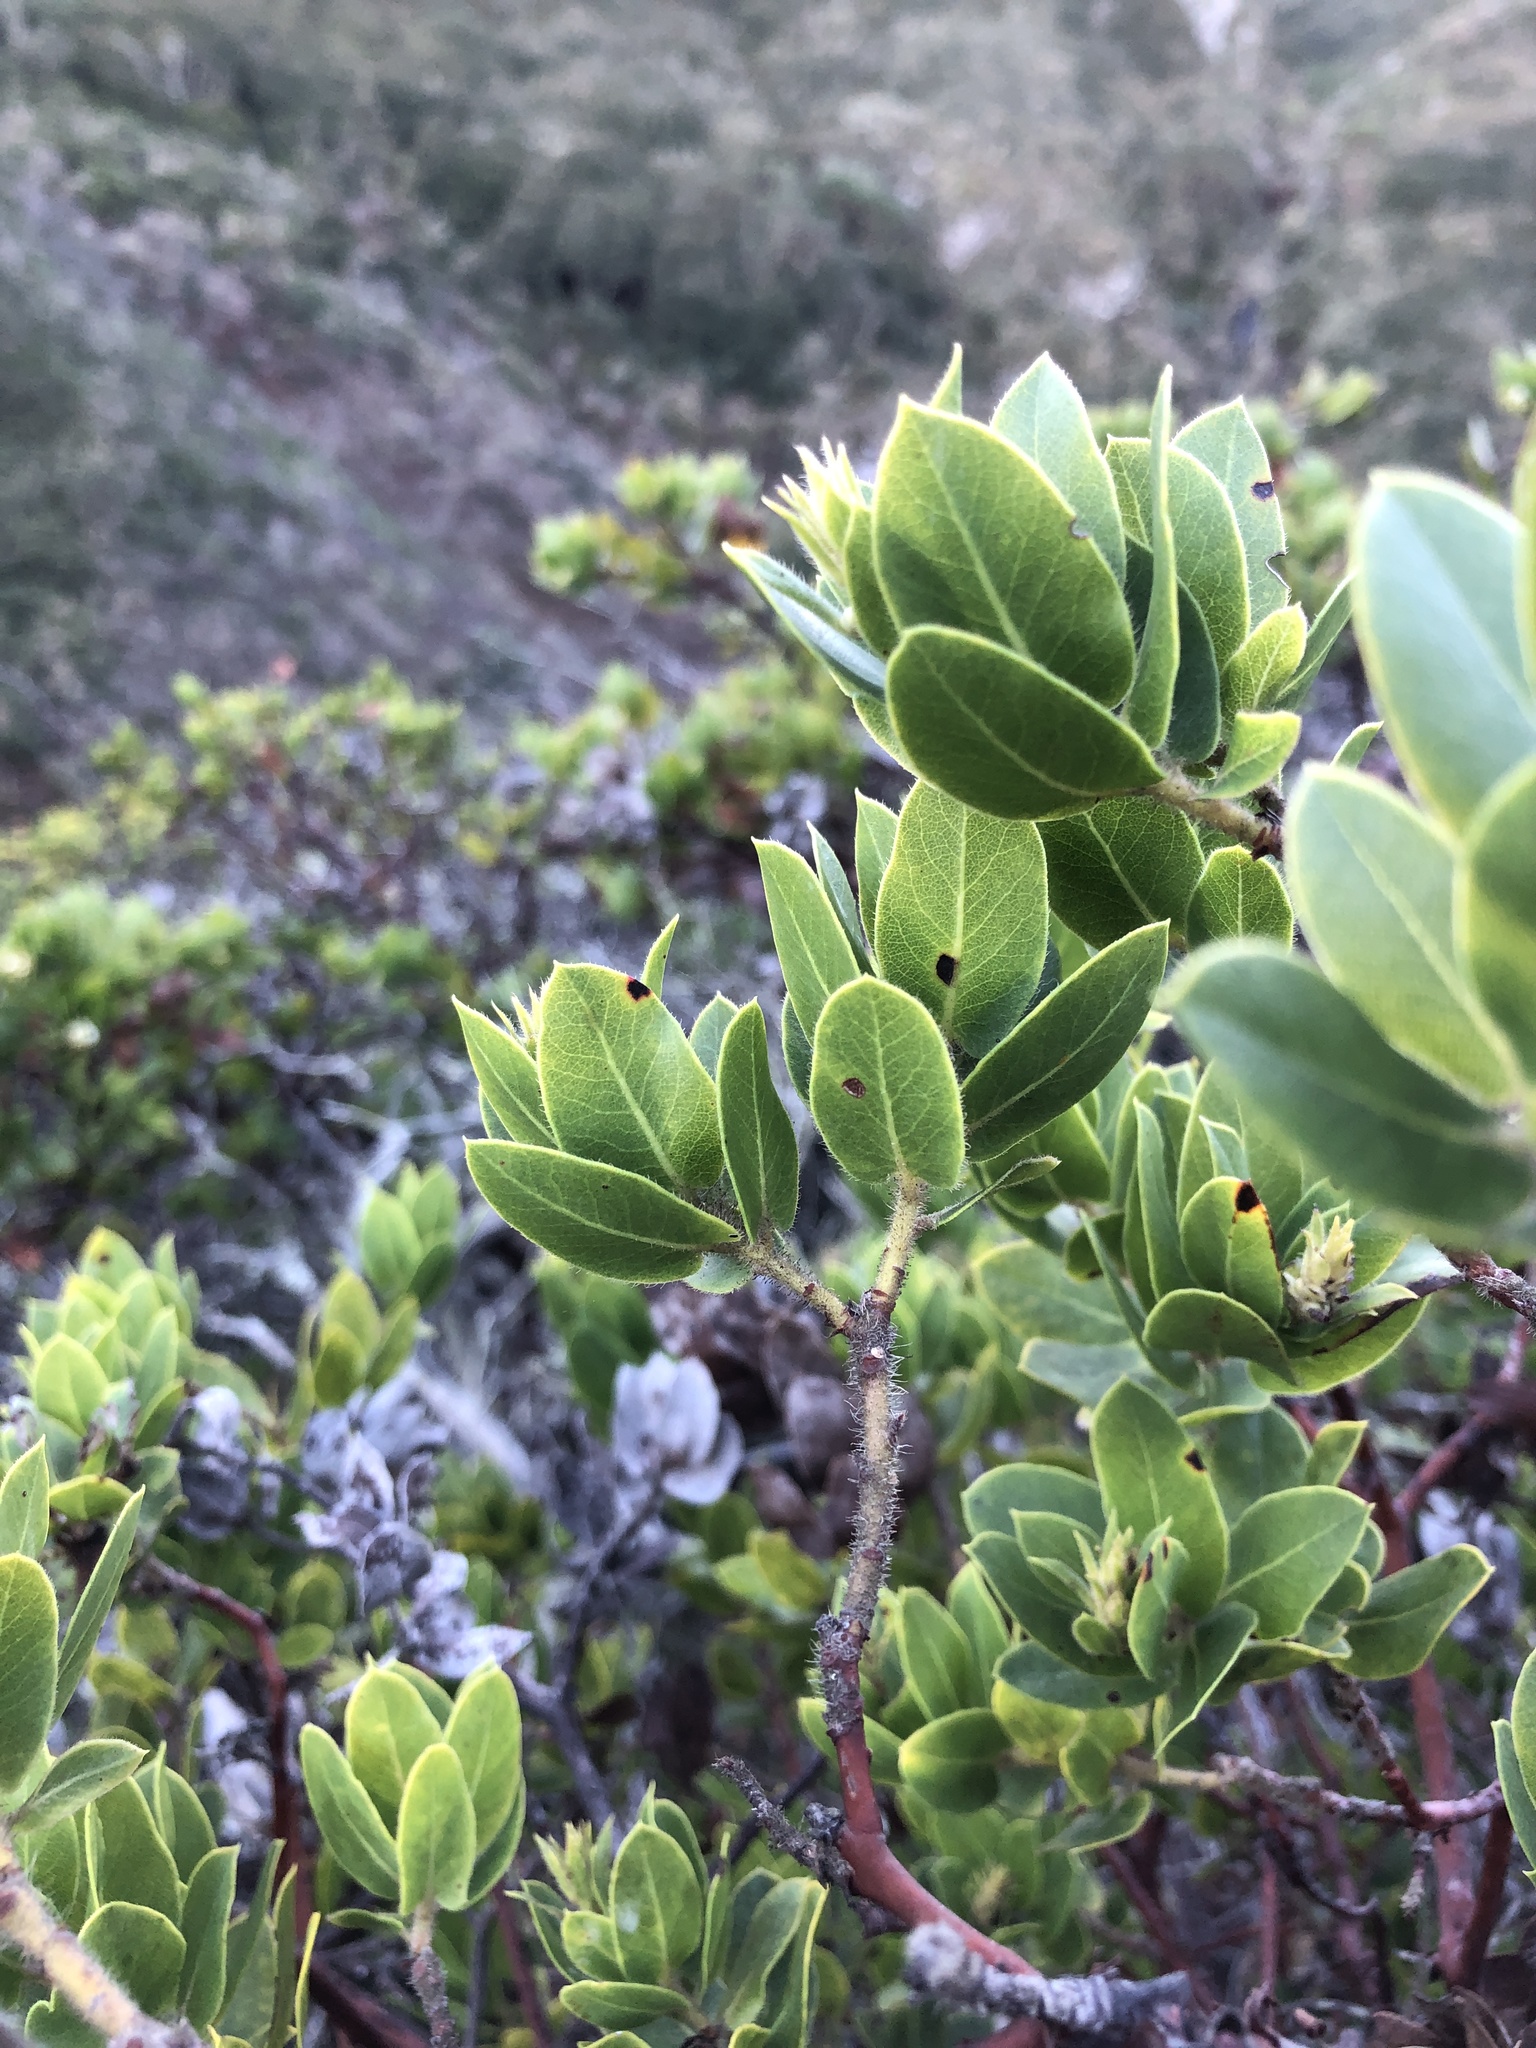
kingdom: Plantae
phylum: Tracheophyta
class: Magnoliopsida
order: Ericales
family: Ericaceae
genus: Arctostaphylos
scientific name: Arctostaphylos montaraensis
